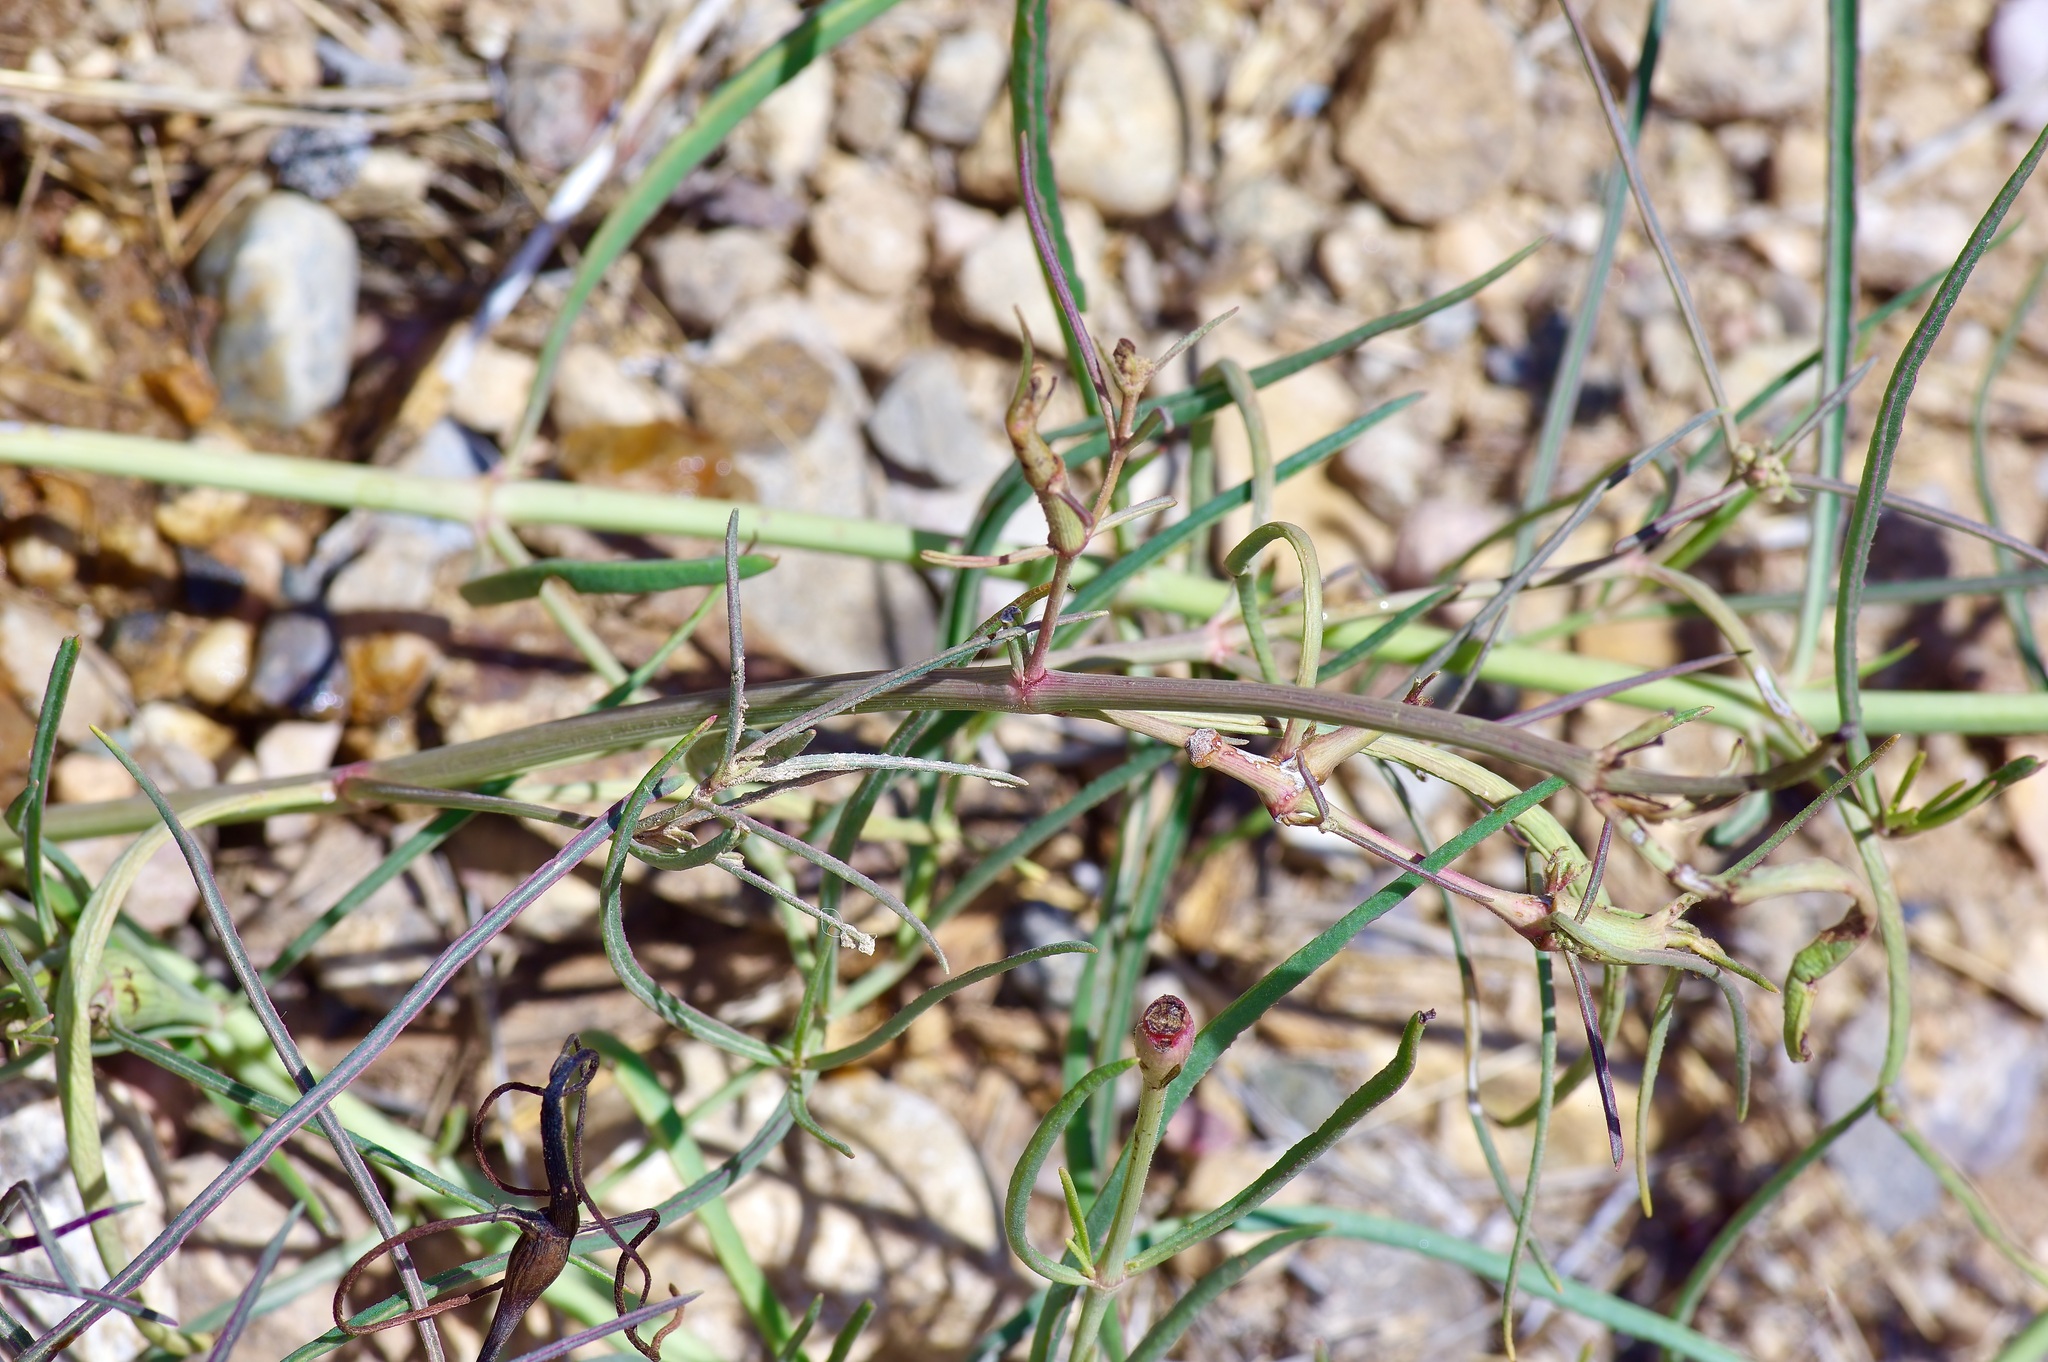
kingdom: Plantae
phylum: Tracheophyta
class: Magnoliopsida
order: Caryophyllales
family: Nyctaginaceae
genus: Mirabilis
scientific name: Mirabilis linearis
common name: Linear-leaved four-o'clock
